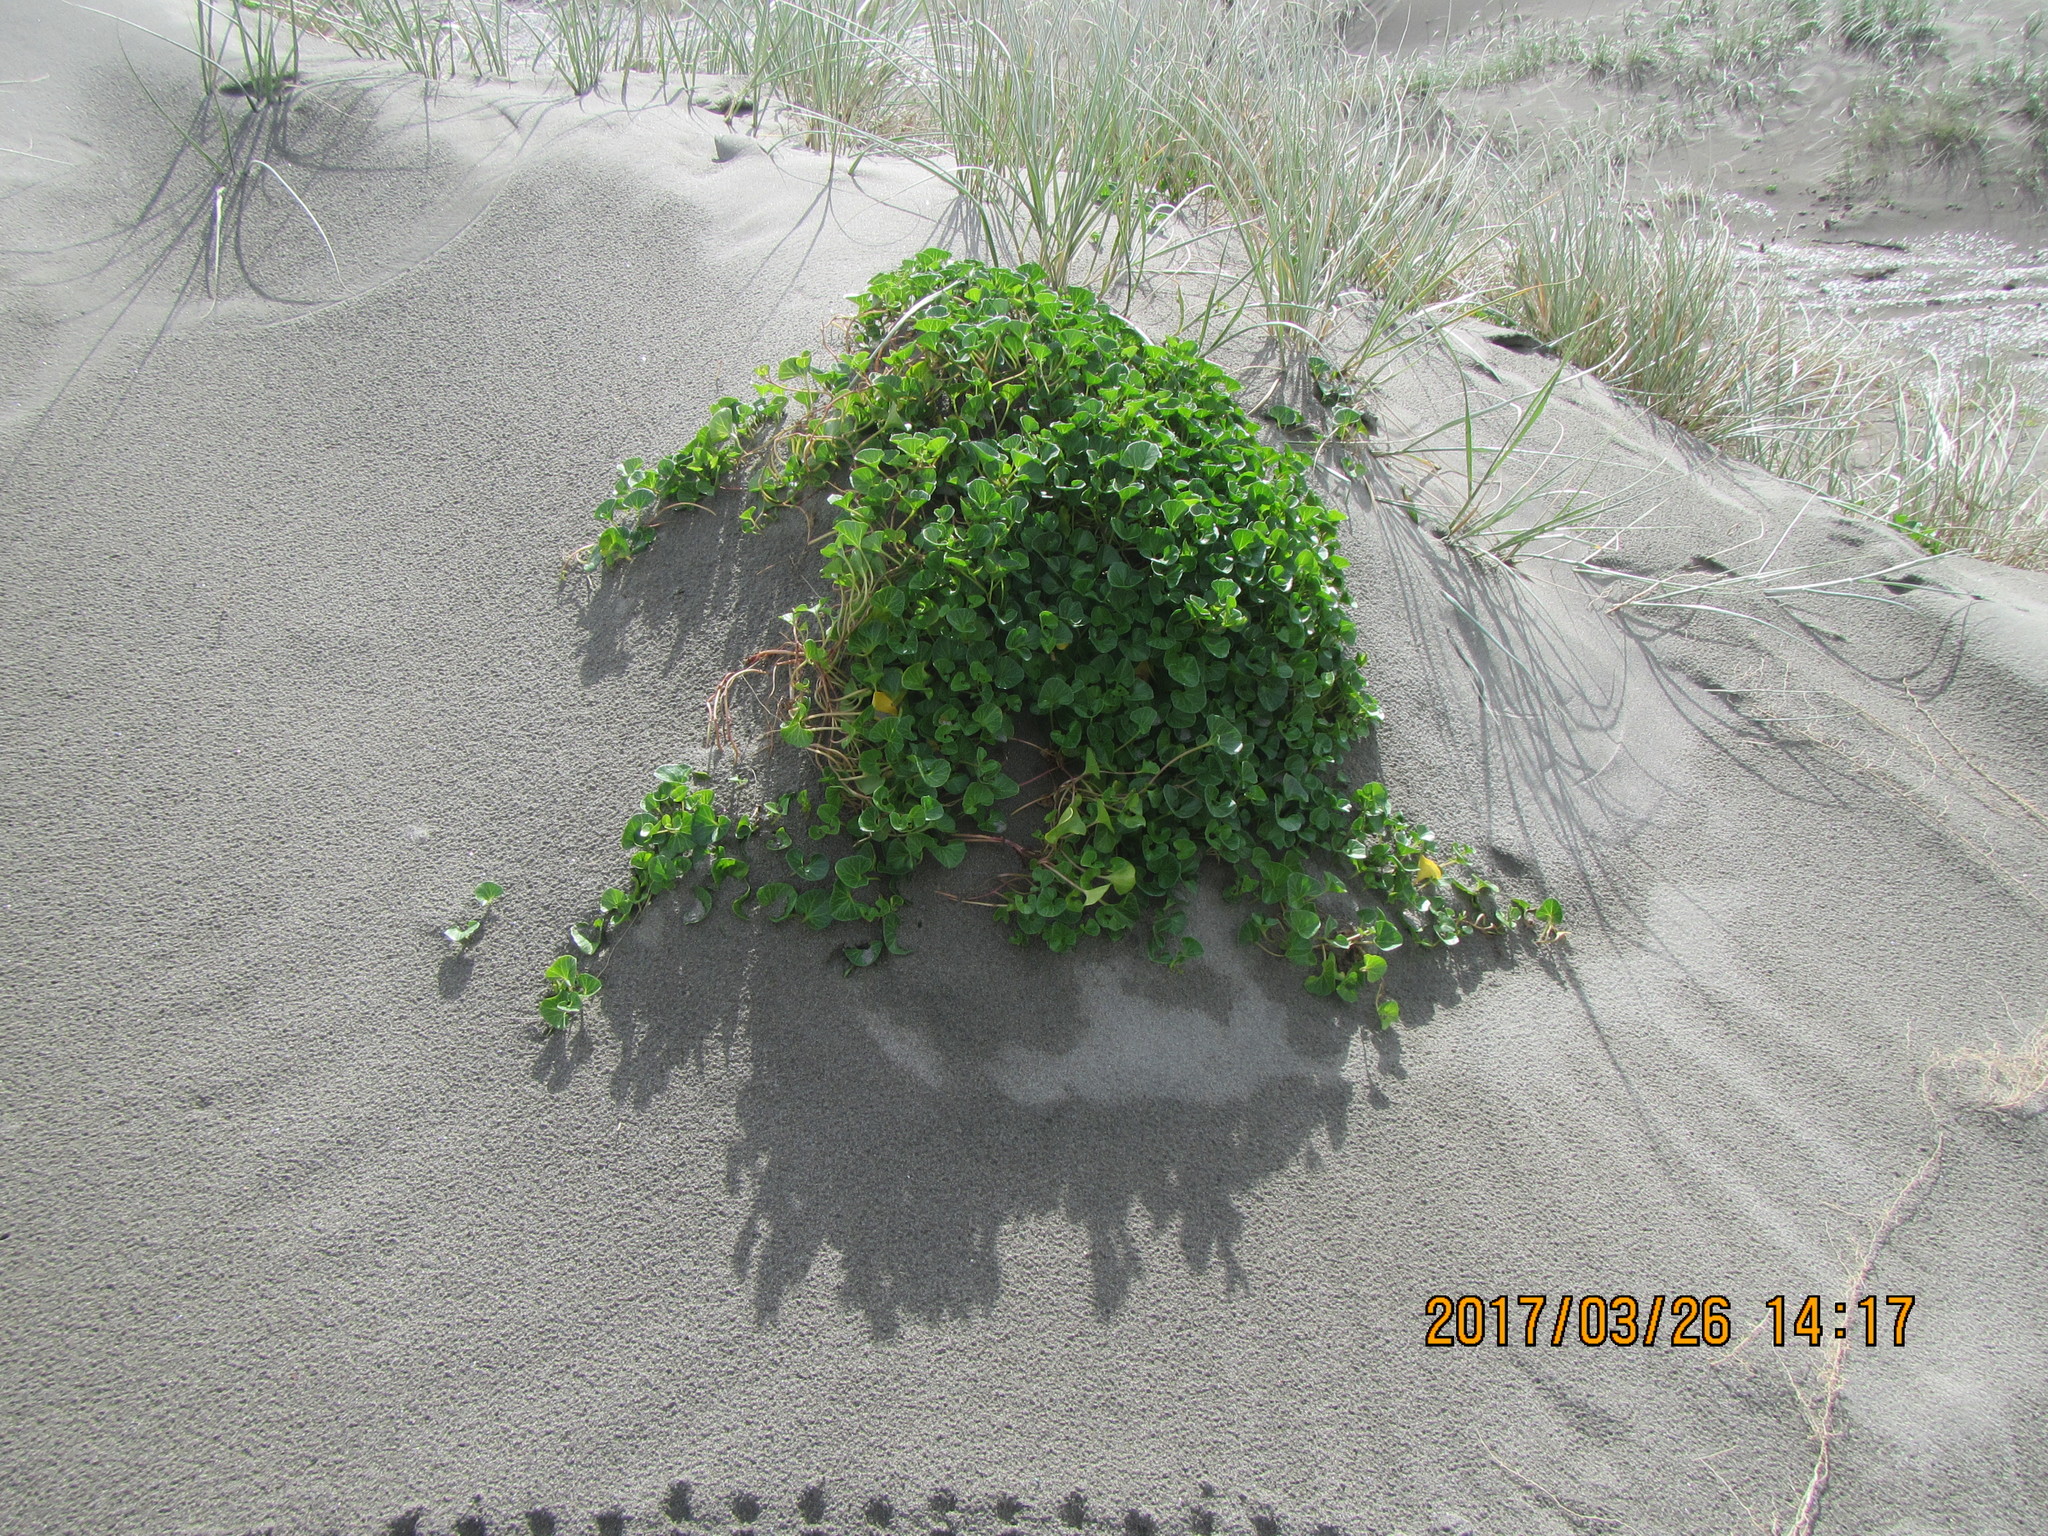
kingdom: Plantae
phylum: Tracheophyta
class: Magnoliopsida
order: Solanales
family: Convolvulaceae
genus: Calystegia
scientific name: Calystegia soldanella
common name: Sea bindweed
